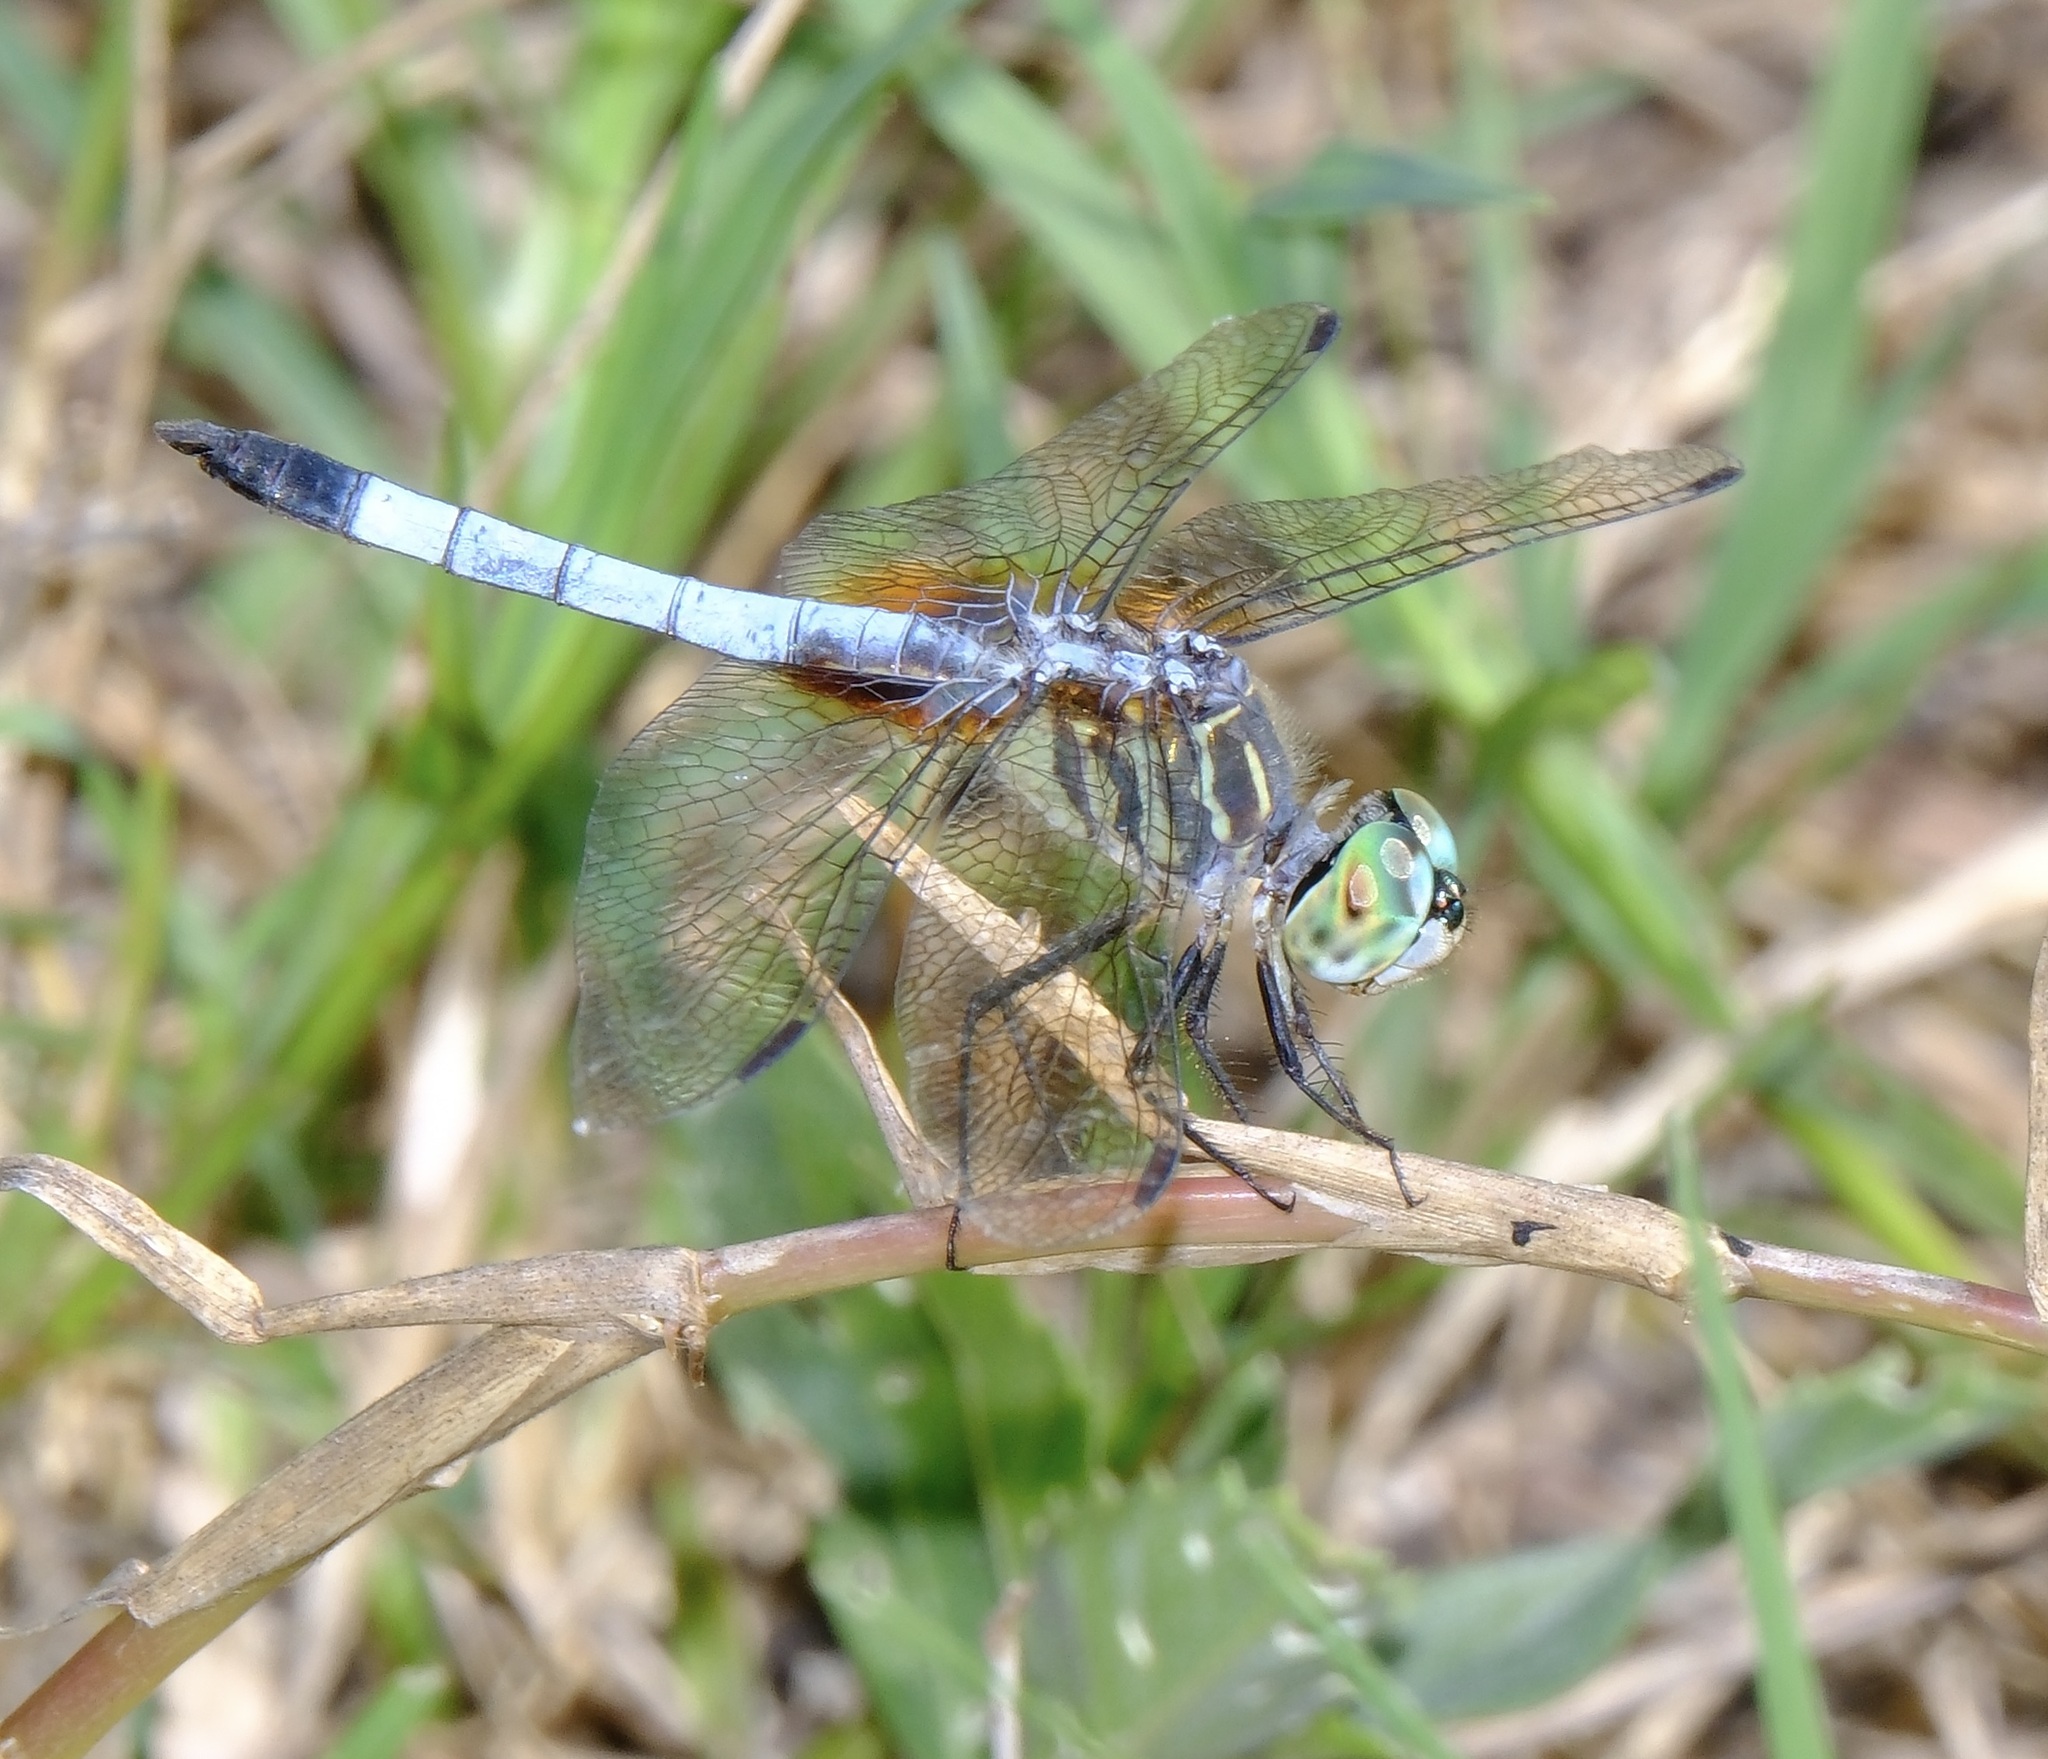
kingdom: Animalia
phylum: Arthropoda
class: Insecta
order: Odonata
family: Libellulidae
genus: Pachydiplax
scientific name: Pachydiplax longipennis
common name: Blue dasher
